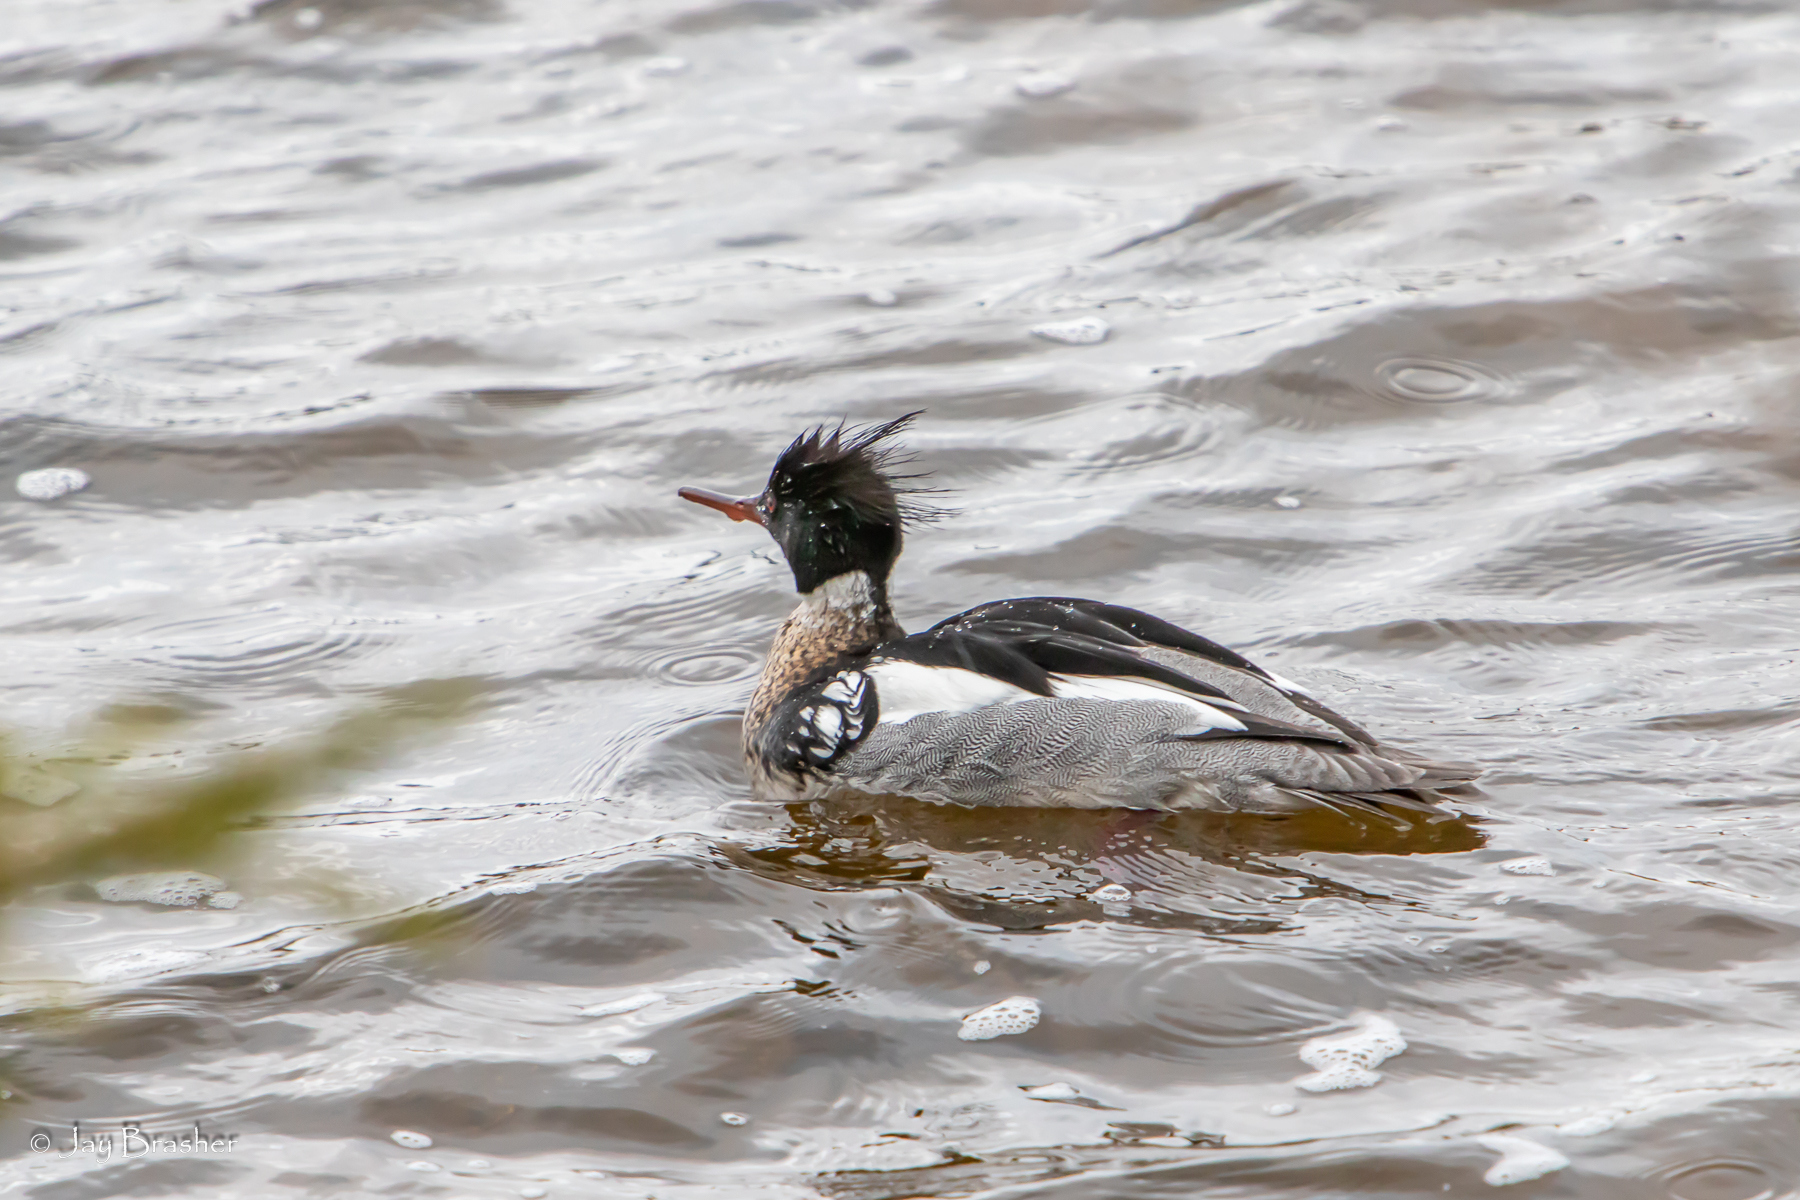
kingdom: Animalia
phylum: Chordata
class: Aves
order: Anseriformes
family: Anatidae
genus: Mergus
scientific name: Mergus serrator
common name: Red-breasted merganser
